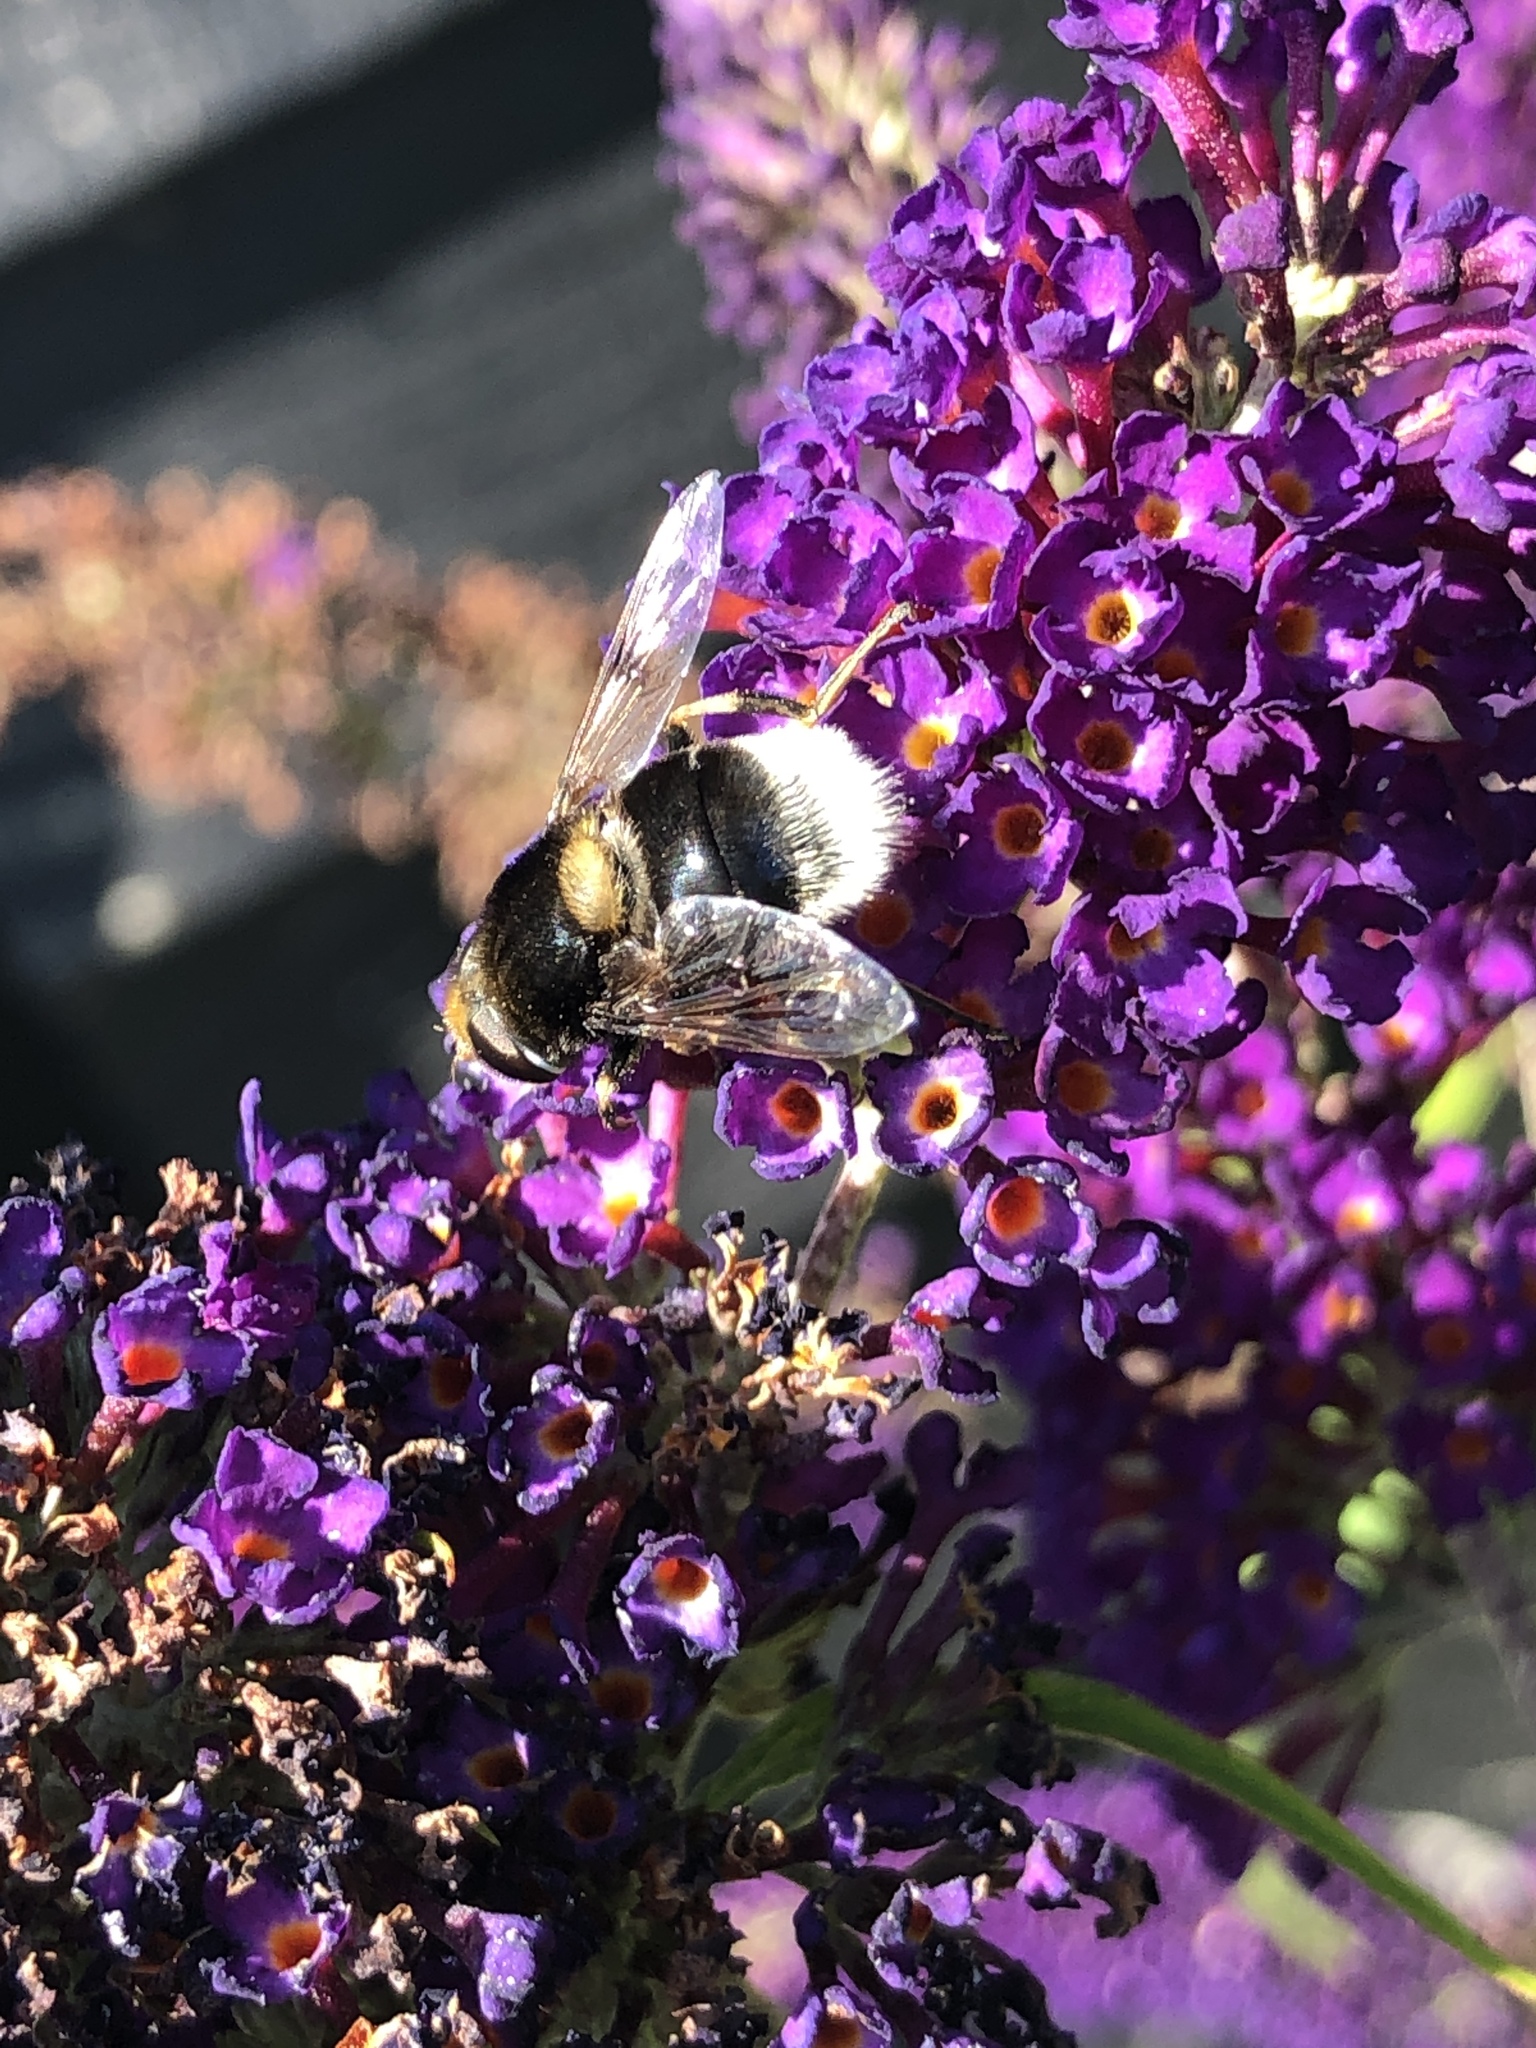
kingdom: Animalia
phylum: Arthropoda
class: Insecta
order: Diptera
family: Syrphidae
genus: Eristalis
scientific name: Eristalis intricaria
